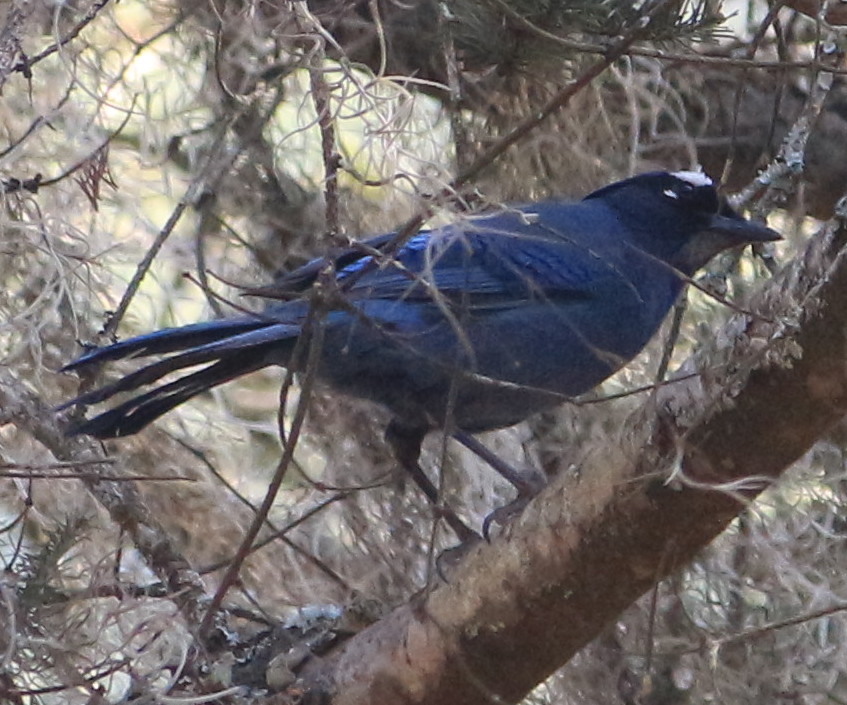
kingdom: Animalia
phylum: Chordata
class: Aves
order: Passeriformes
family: Corvidae
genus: Cyanocitta
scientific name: Cyanocitta stelleri
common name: Steller's jay
